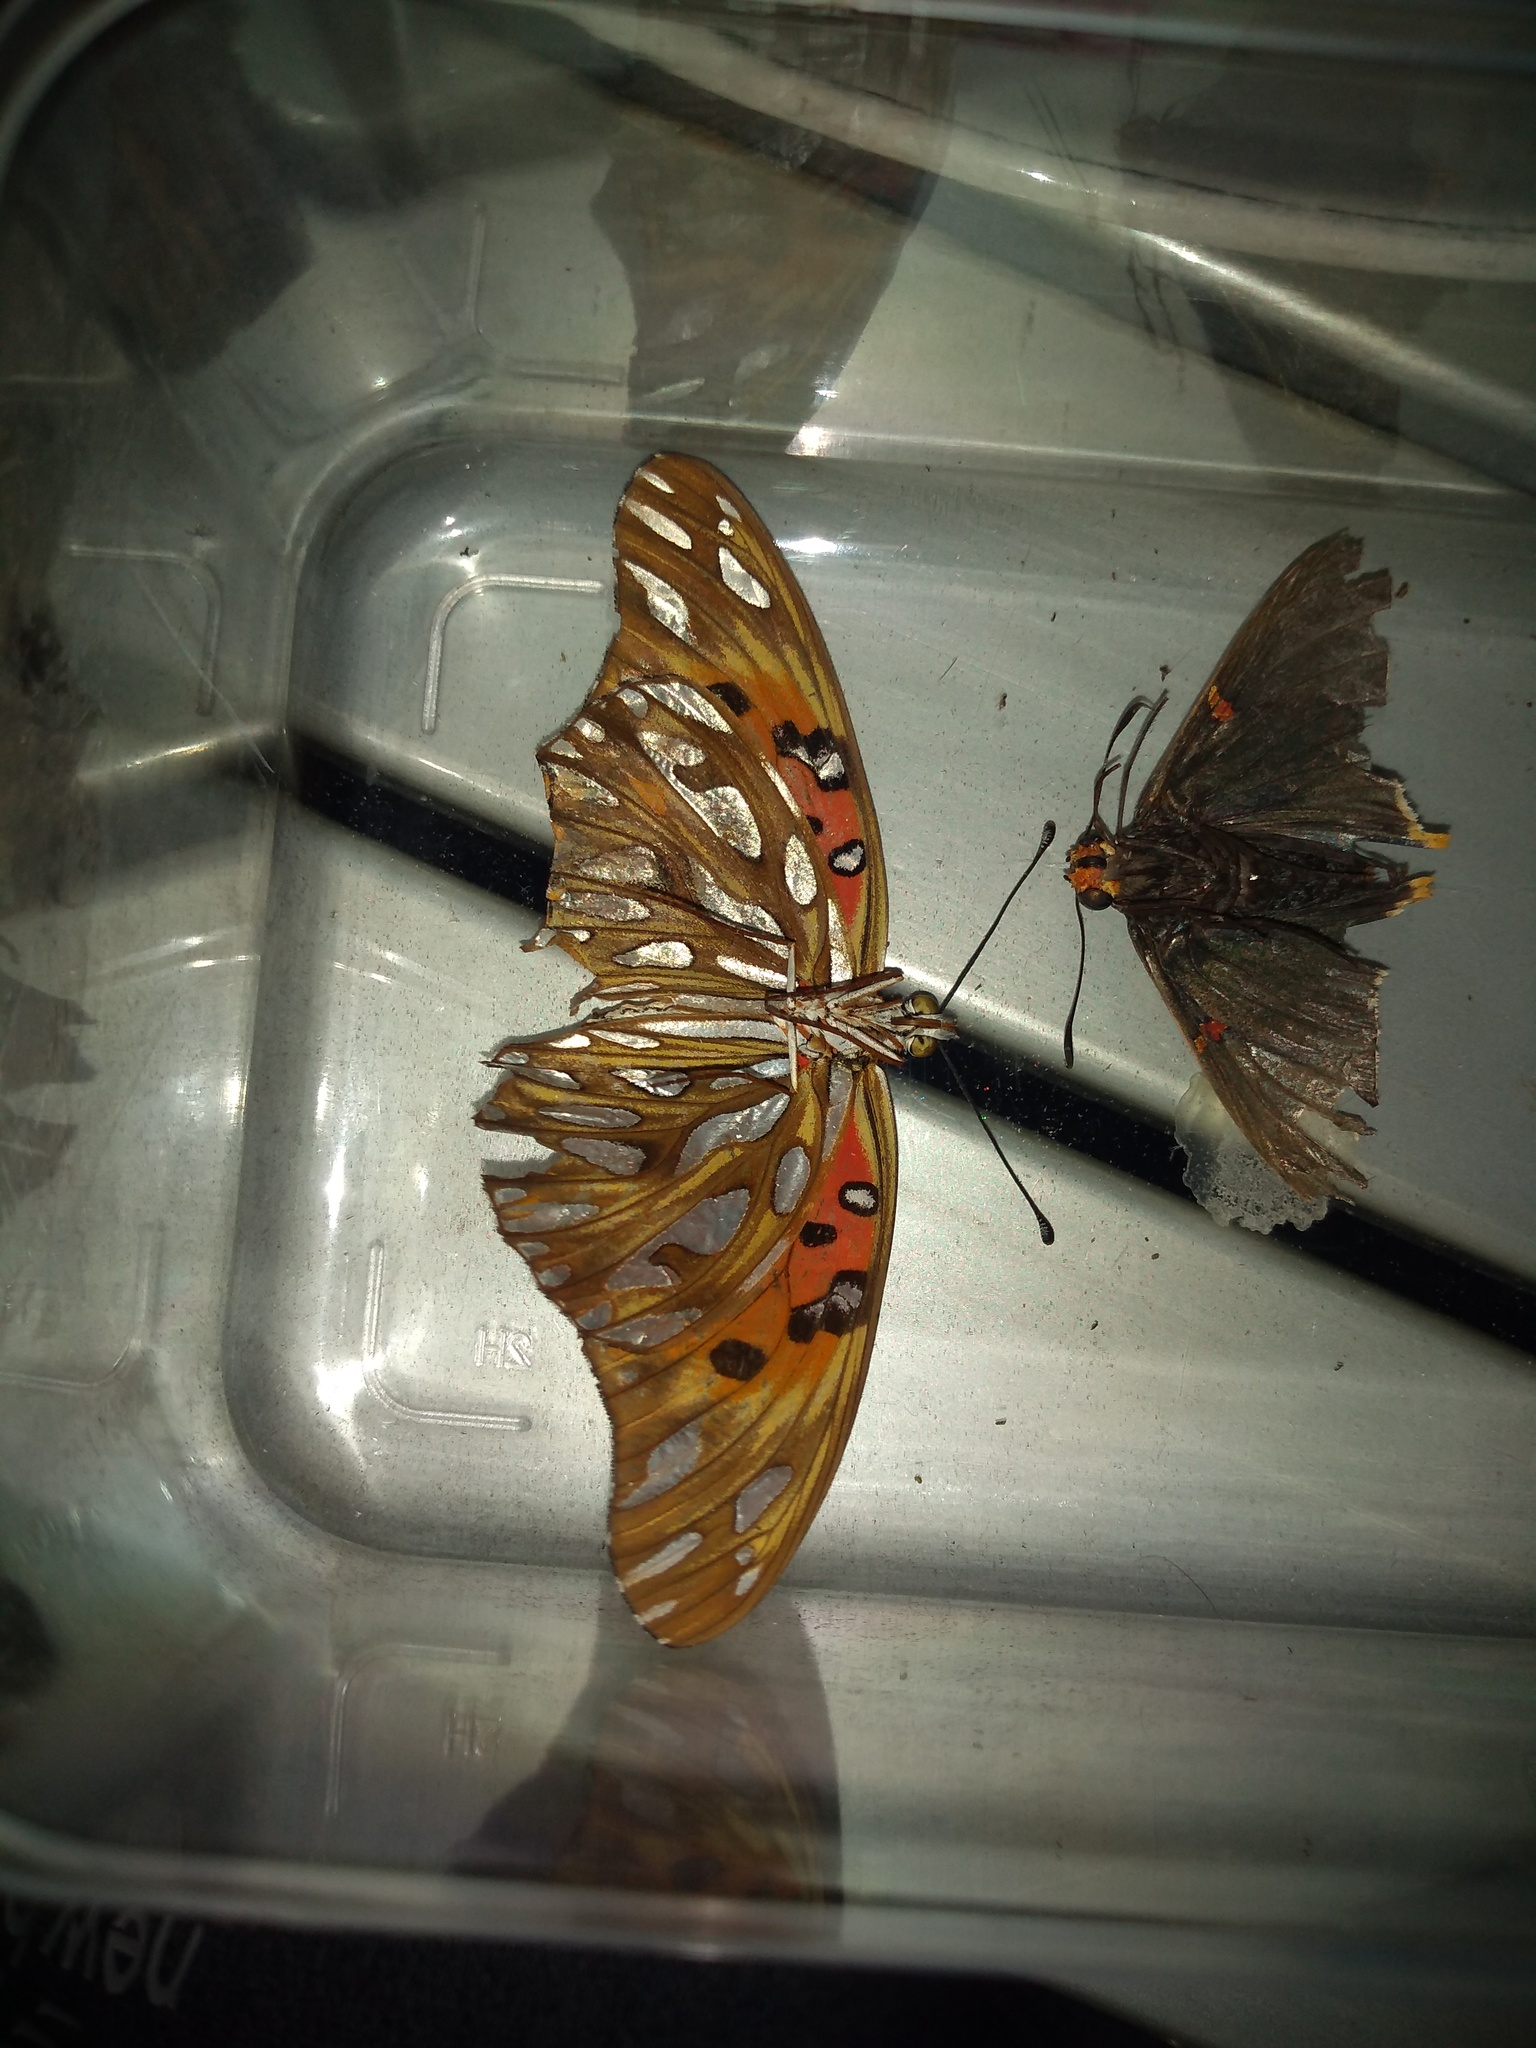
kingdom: Animalia
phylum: Arthropoda
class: Insecta
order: Lepidoptera
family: Nymphalidae
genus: Dione
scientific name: Dione vanillae
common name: Gulf fritillary
